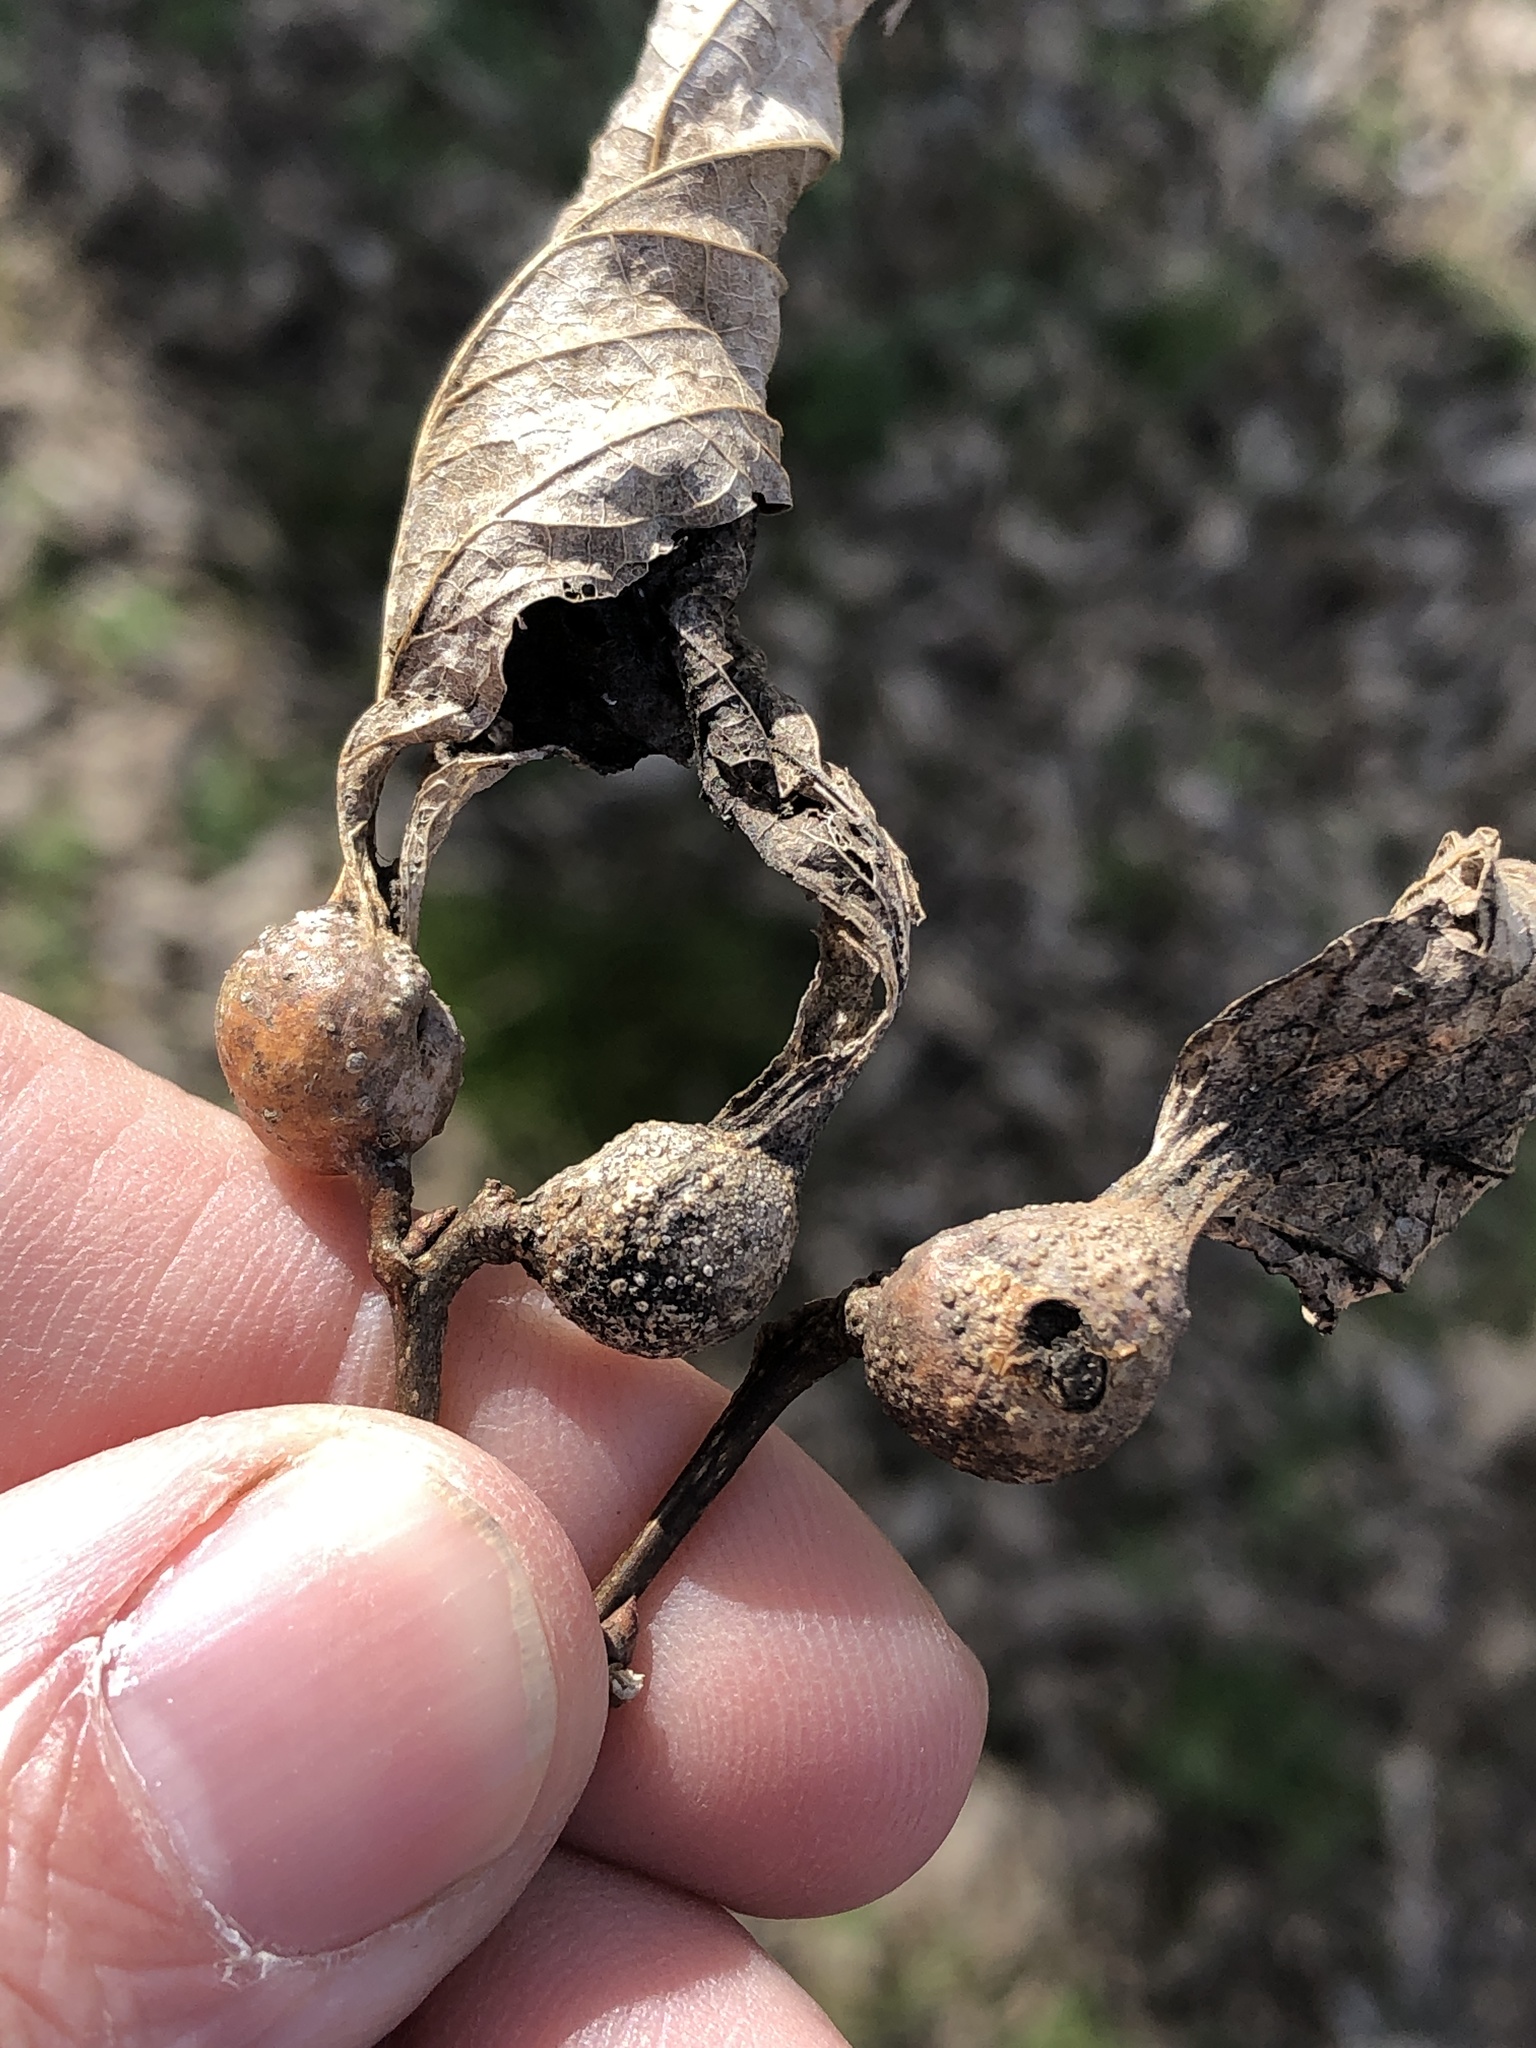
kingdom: Animalia
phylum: Arthropoda
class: Insecta
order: Hemiptera
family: Aphalaridae
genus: Pachypsylla
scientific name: Pachypsylla venusta
